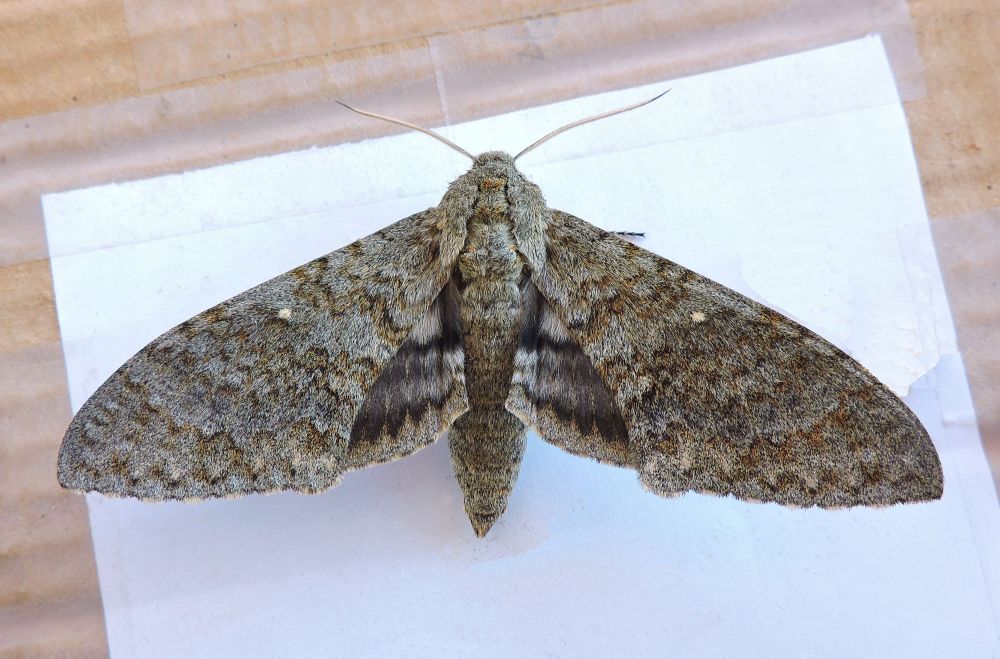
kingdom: Animalia
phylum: Arthropoda
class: Insecta
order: Lepidoptera
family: Sphingidae
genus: Manduca
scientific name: Manduca muscosa
